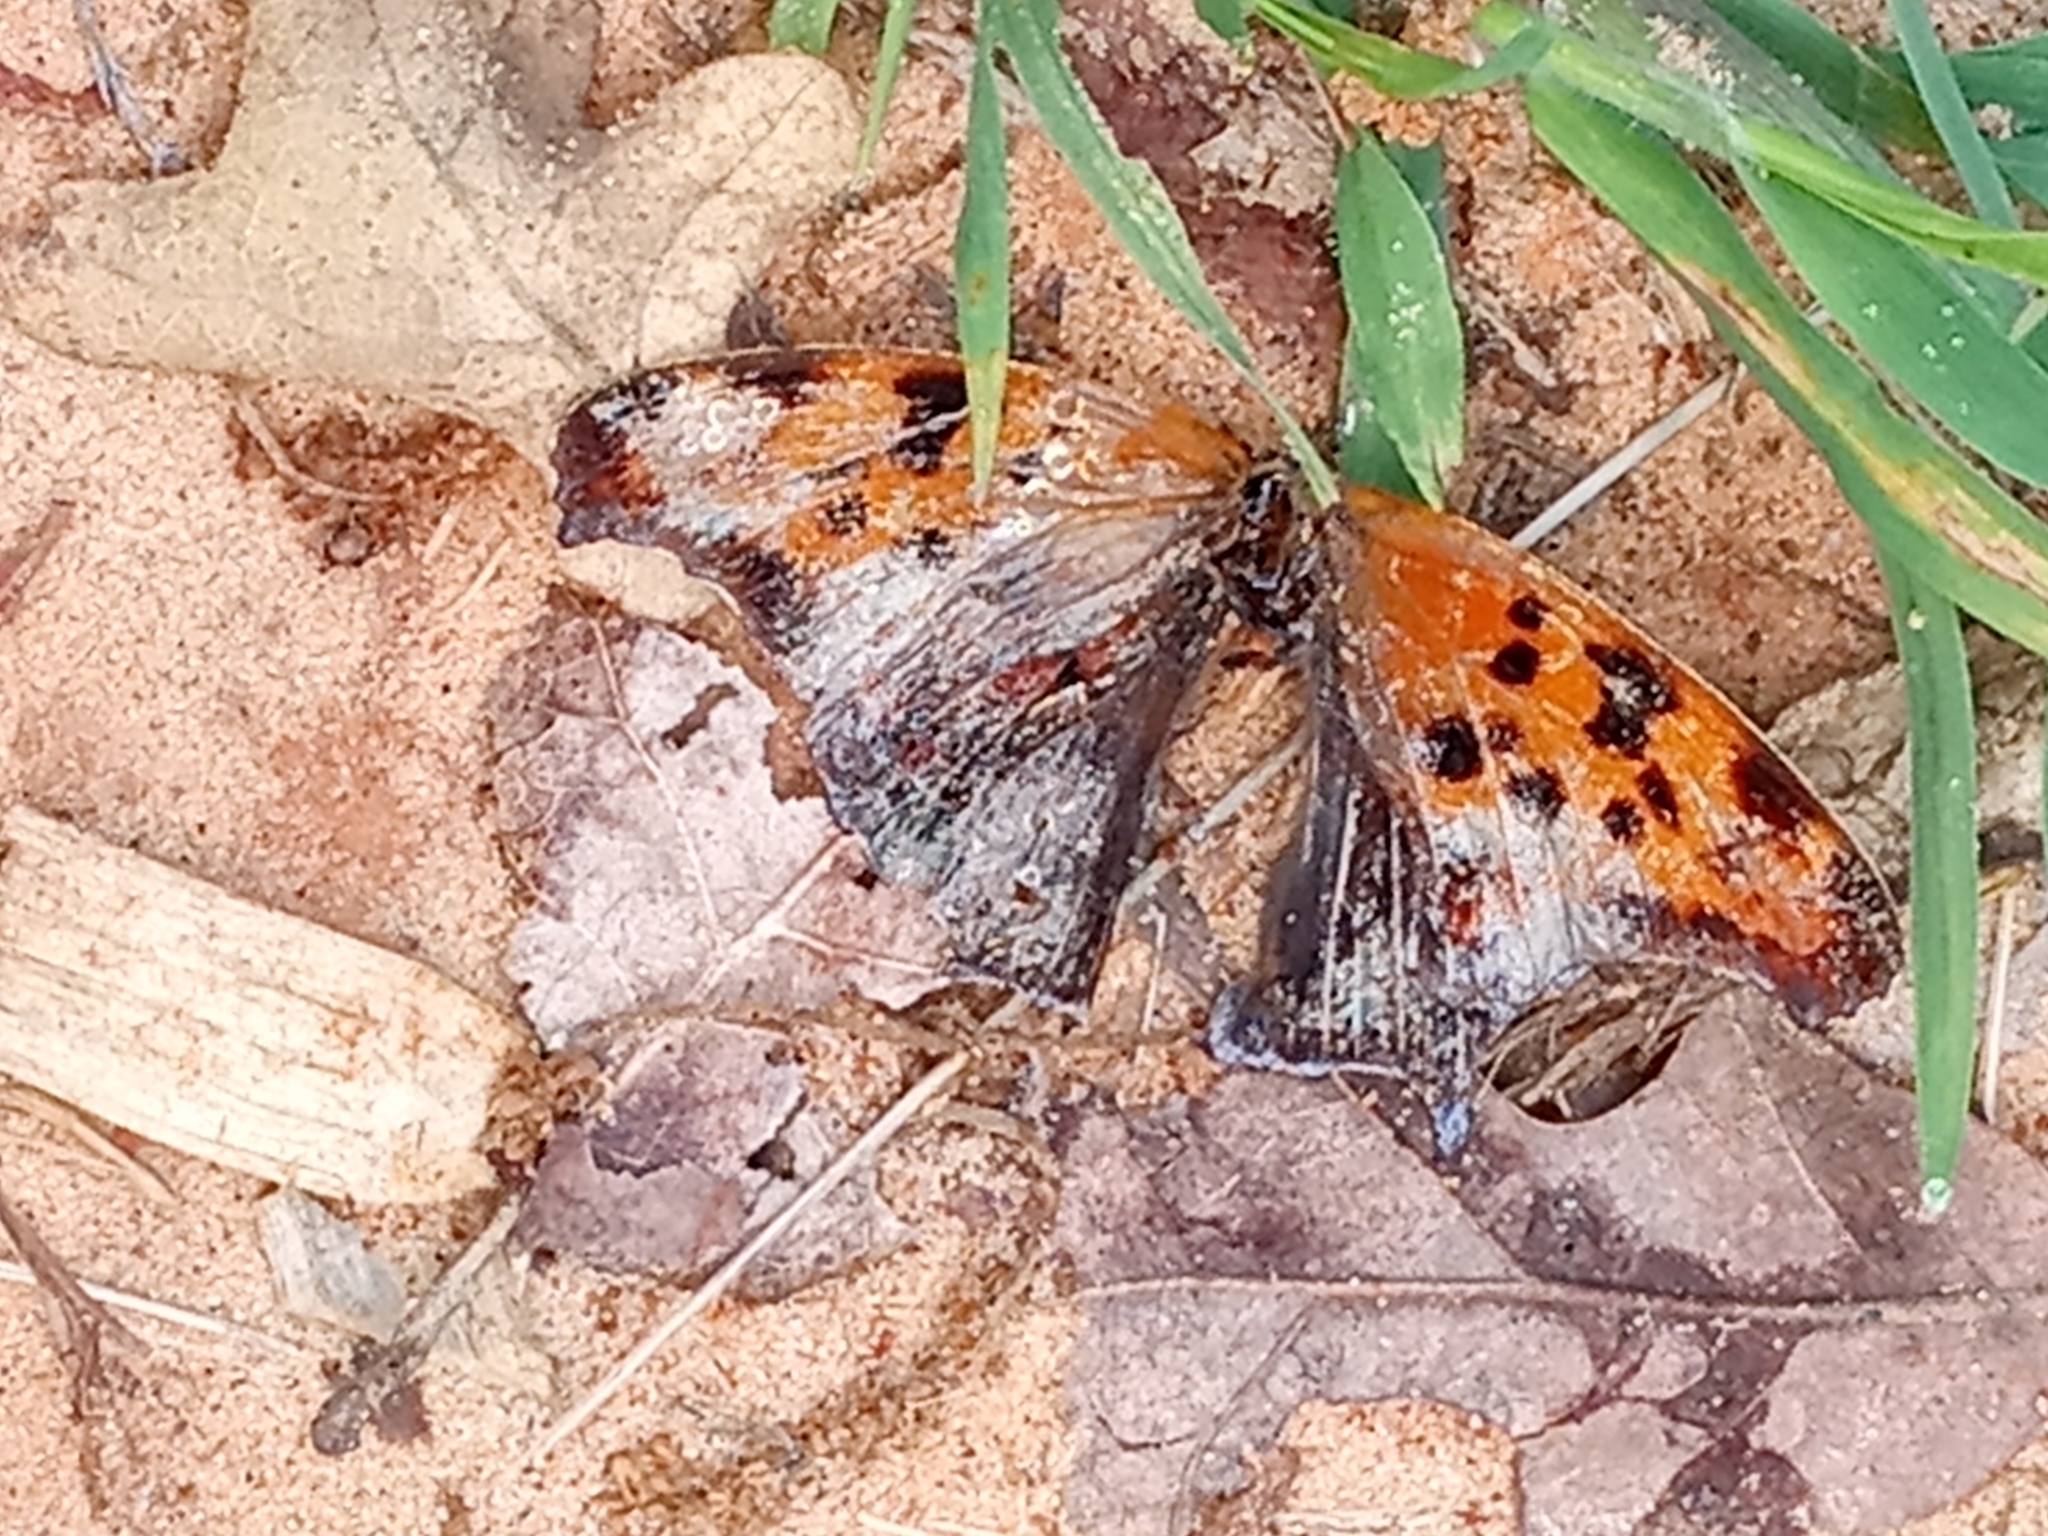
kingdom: Animalia
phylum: Arthropoda
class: Insecta
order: Lepidoptera
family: Nymphalidae
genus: Polygonia
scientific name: Polygonia interrogationis
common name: Question mark
